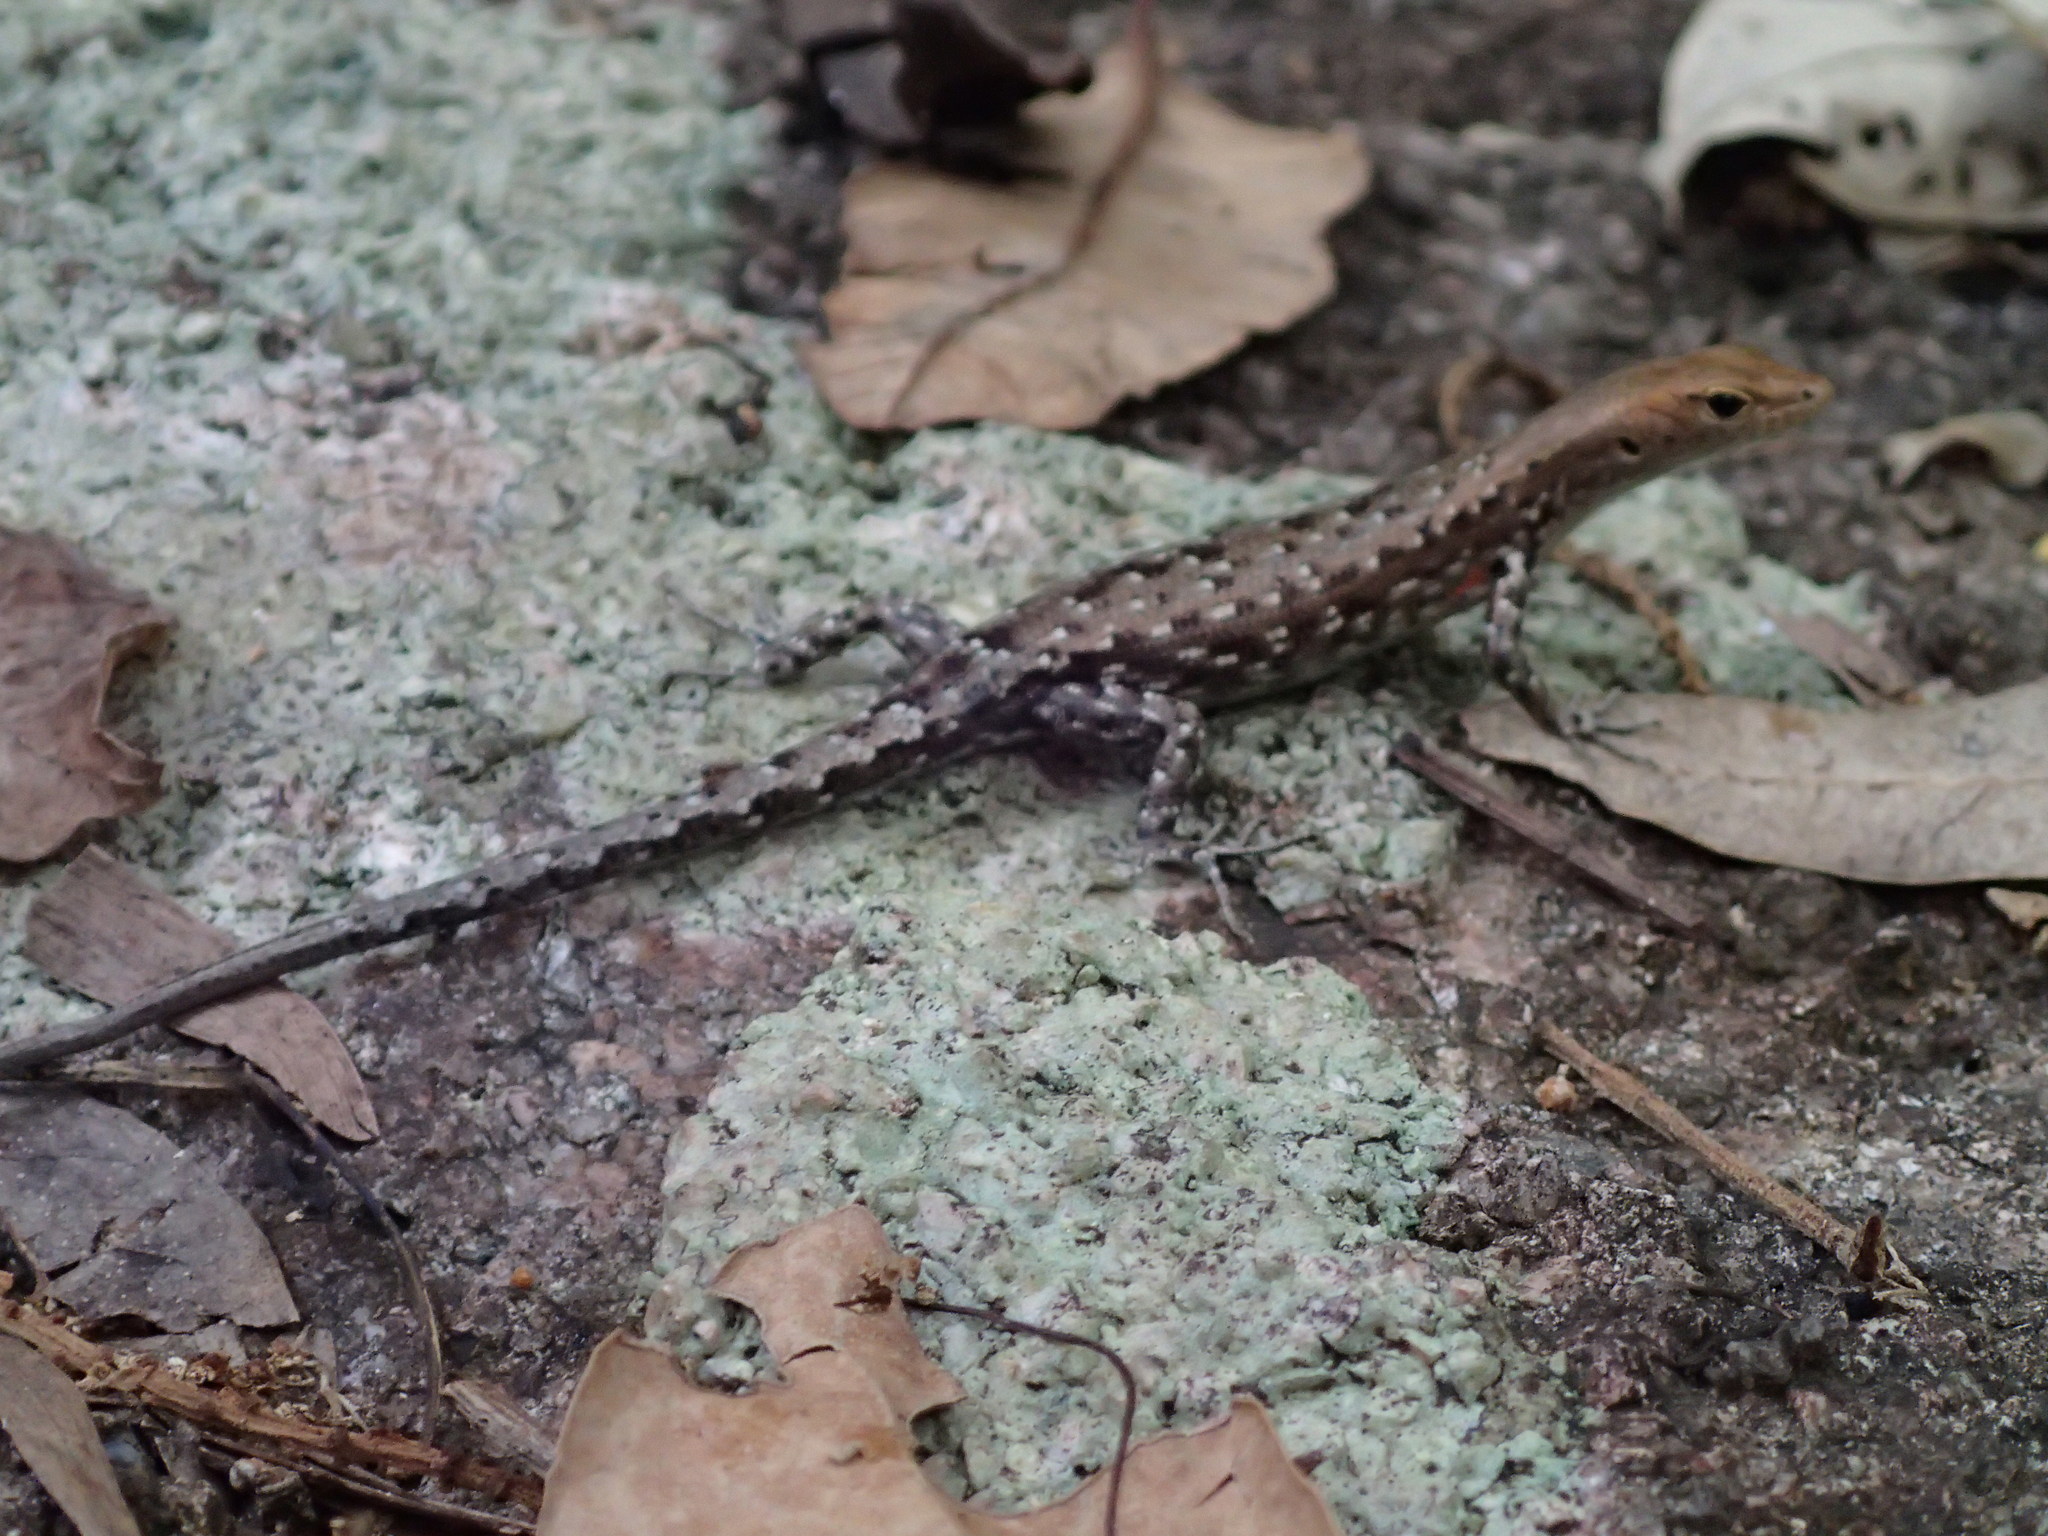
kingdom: Animalia
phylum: Chordata
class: Squamata
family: Scincidae
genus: Lampropholis
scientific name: Lampropholis mirabilis
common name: Saxicoline sunskink
